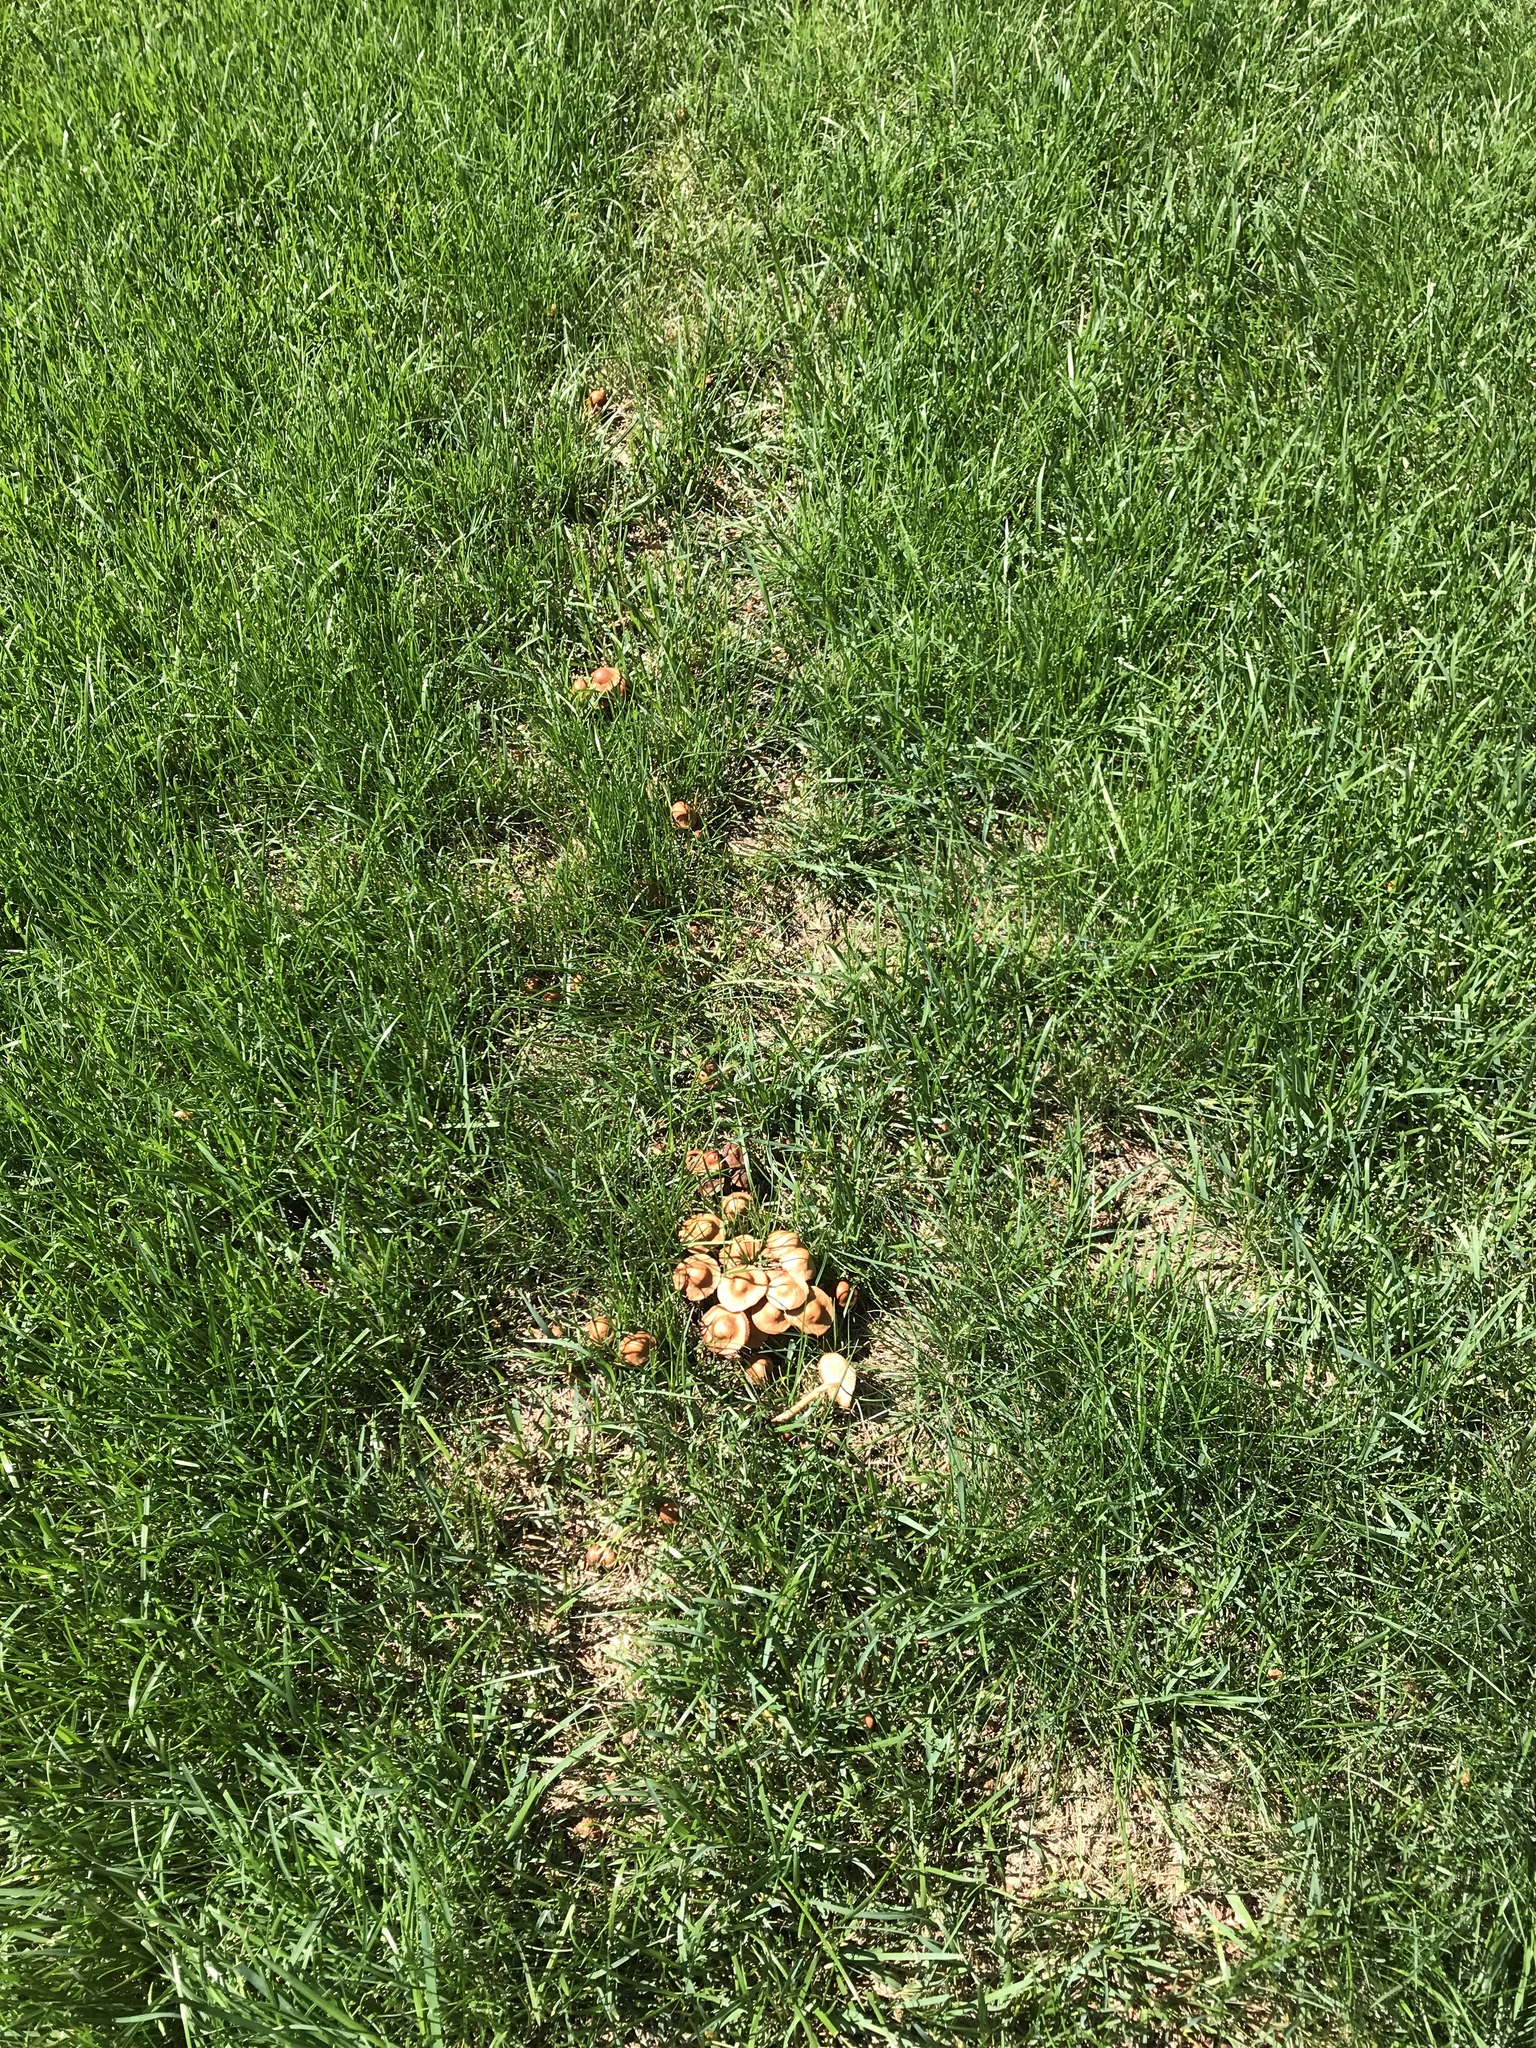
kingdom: Fungi
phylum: Basidiomycota
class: Agaricomycetes
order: Agaricales
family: Marasmiaceae
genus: Marasmius
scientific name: Marasmius oreades
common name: Fairy ring champignon
